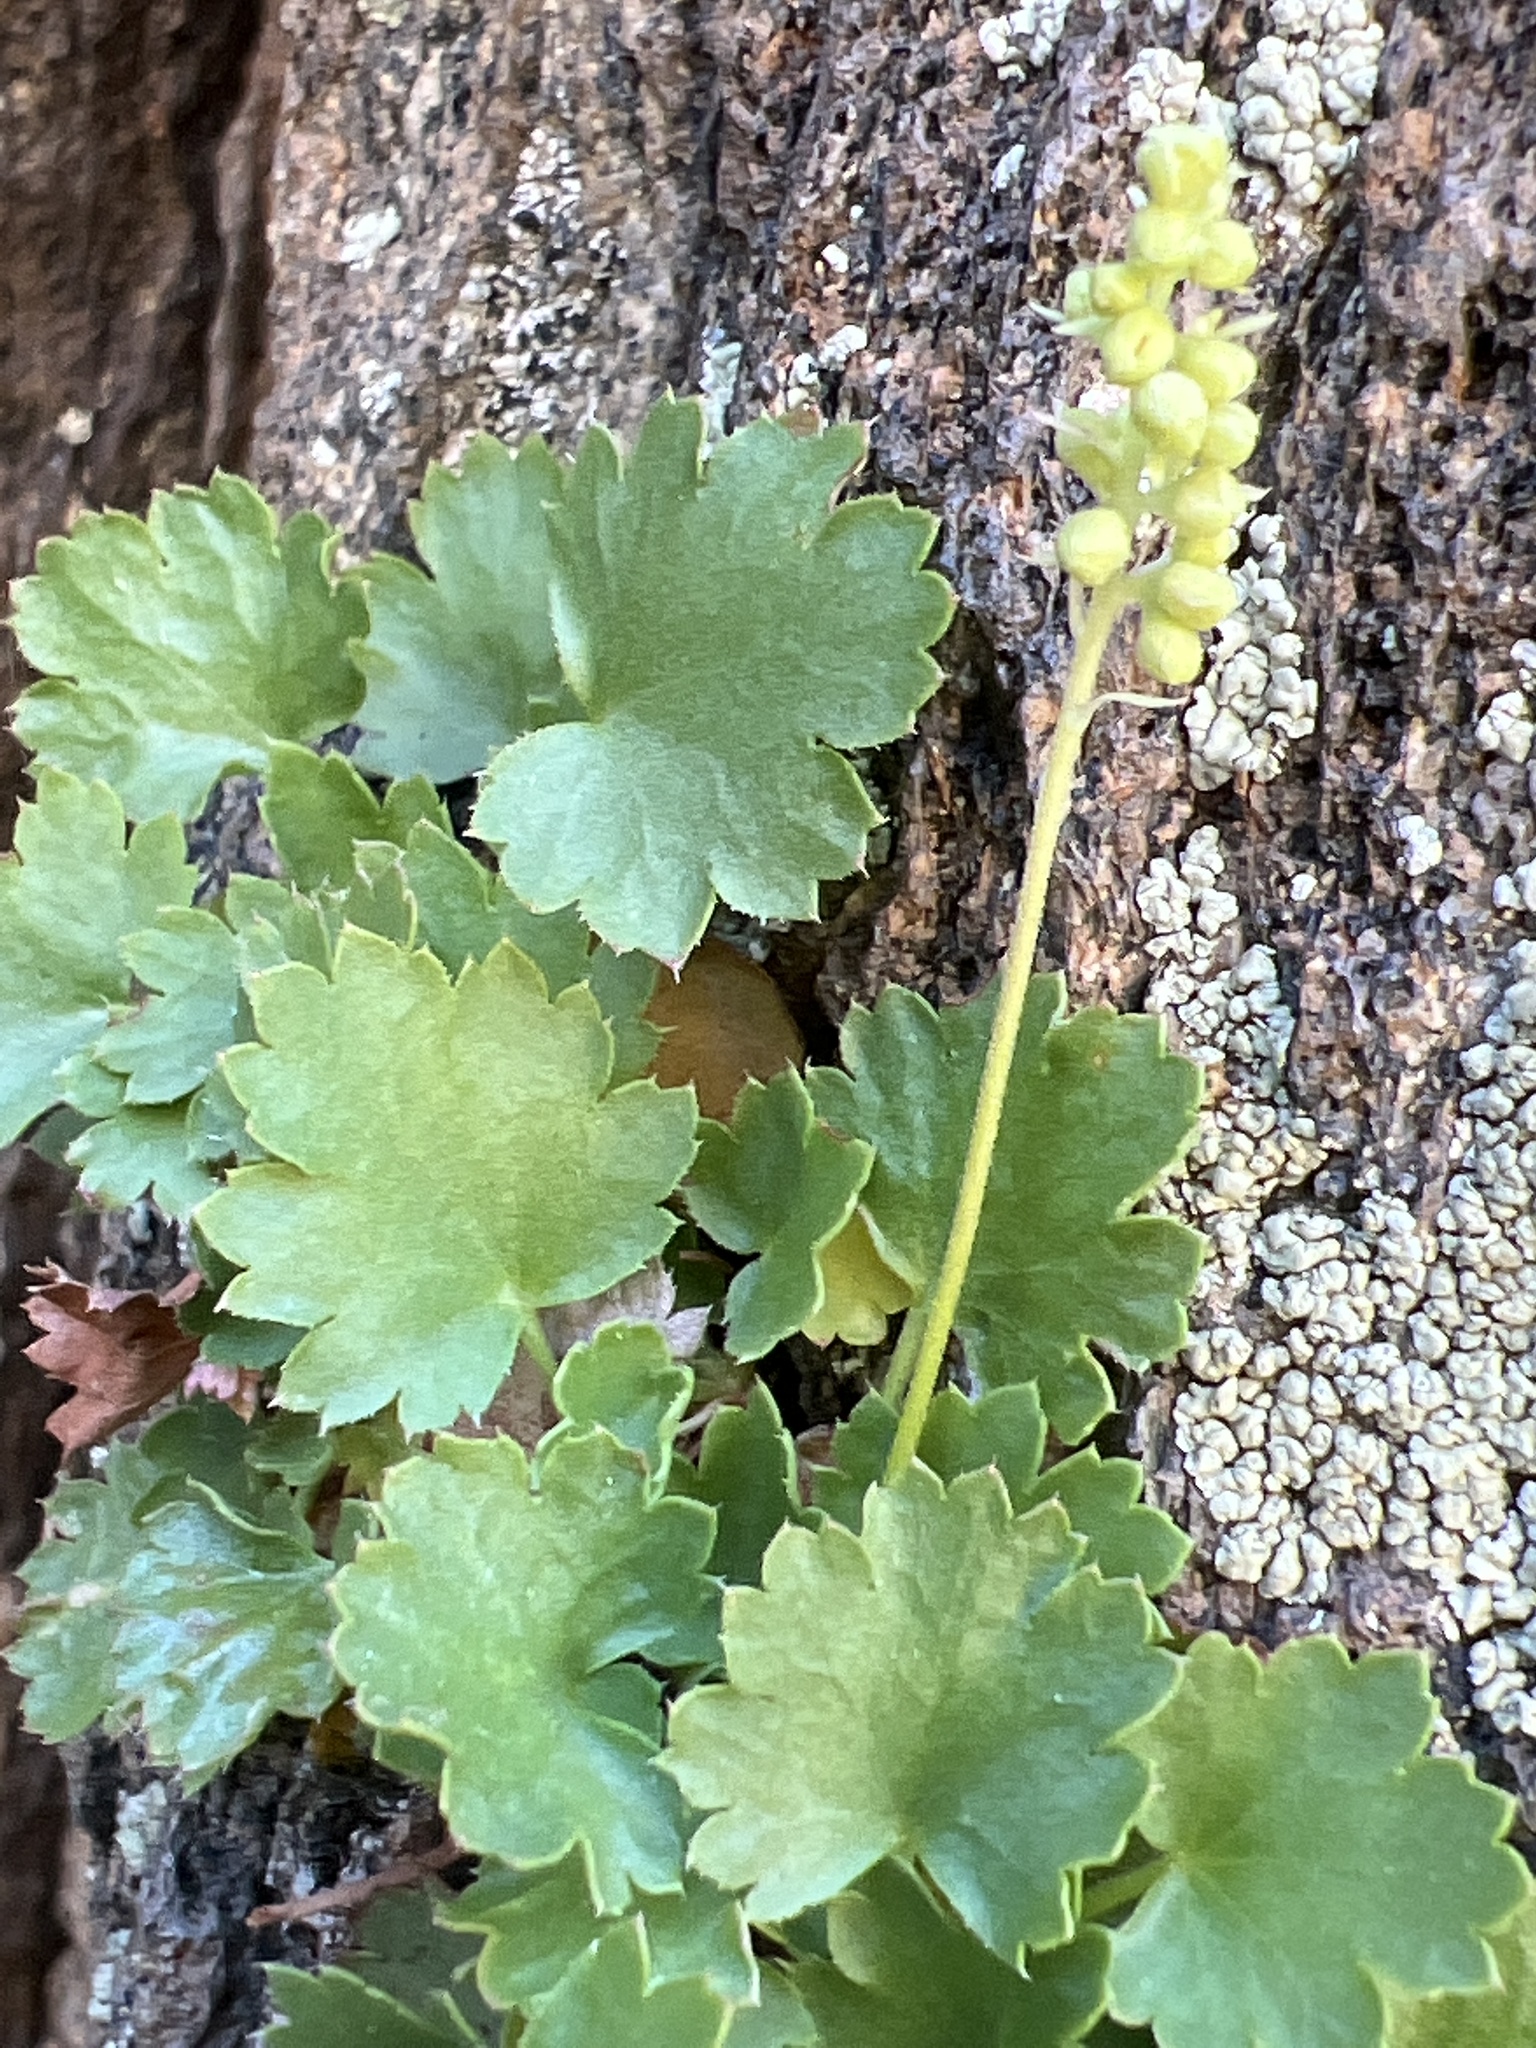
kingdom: Plantae
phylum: Tracheophyta
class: Magnoliopsida
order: Saxifragales
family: Saxifragaceae
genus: Heuchera
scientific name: Heuchera bracteata
